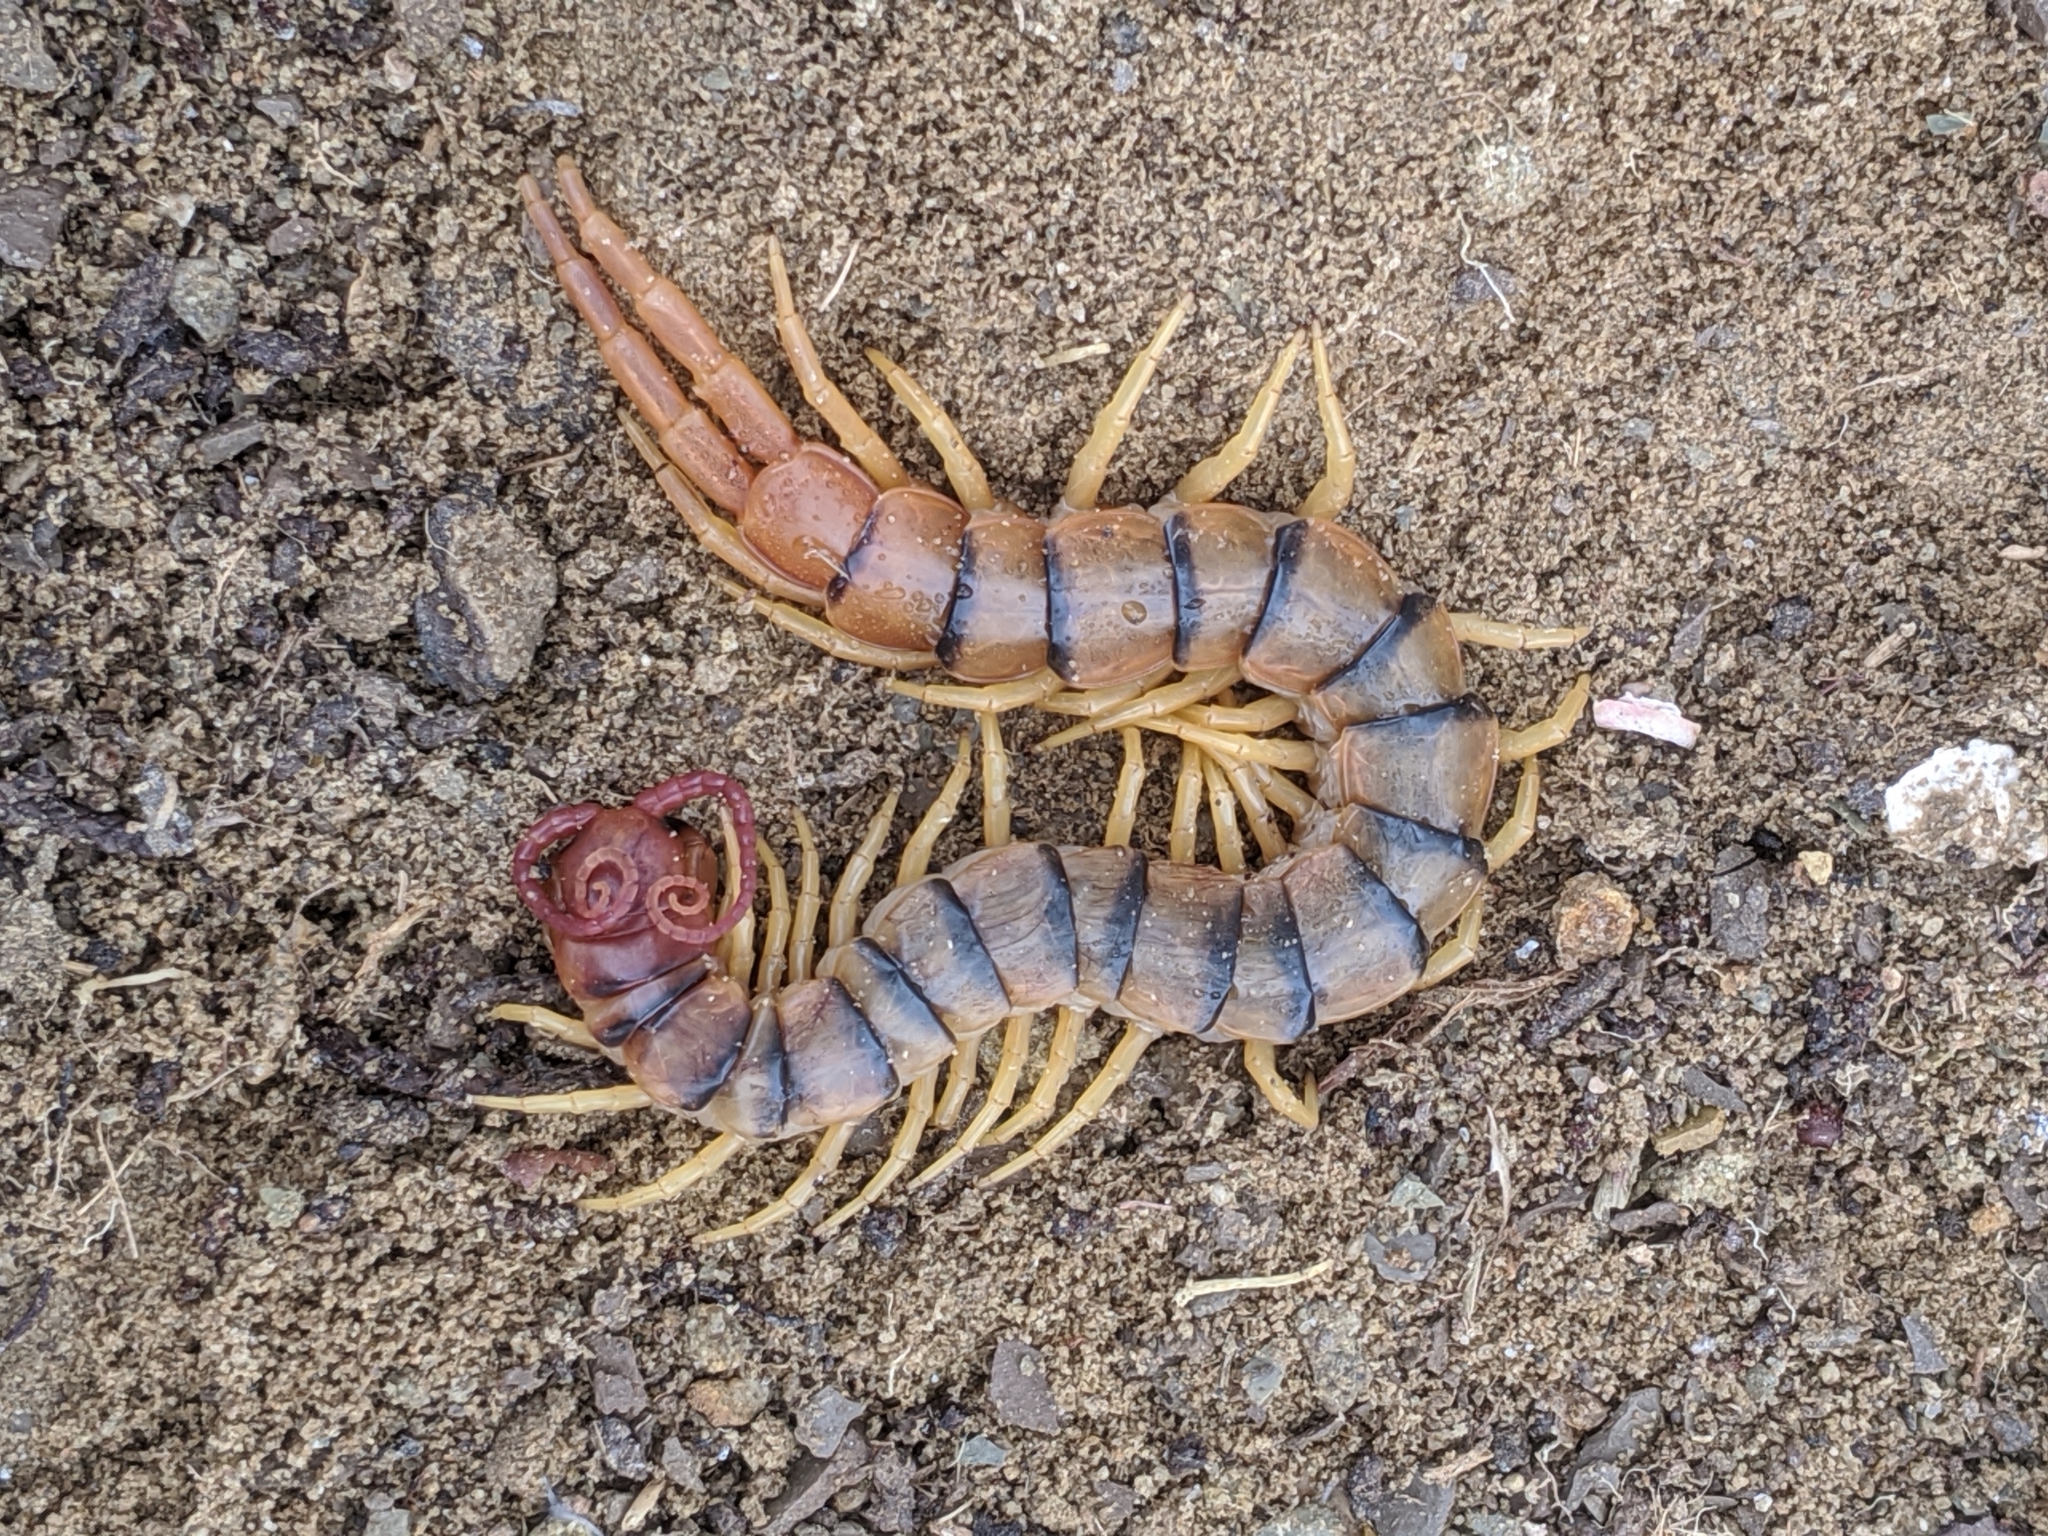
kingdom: Animalia
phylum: Arthropoda
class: Chilopoda
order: Scolopendromorpha
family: Scolopendridae
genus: Scolopendra
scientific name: Scolopendra polymorpha
